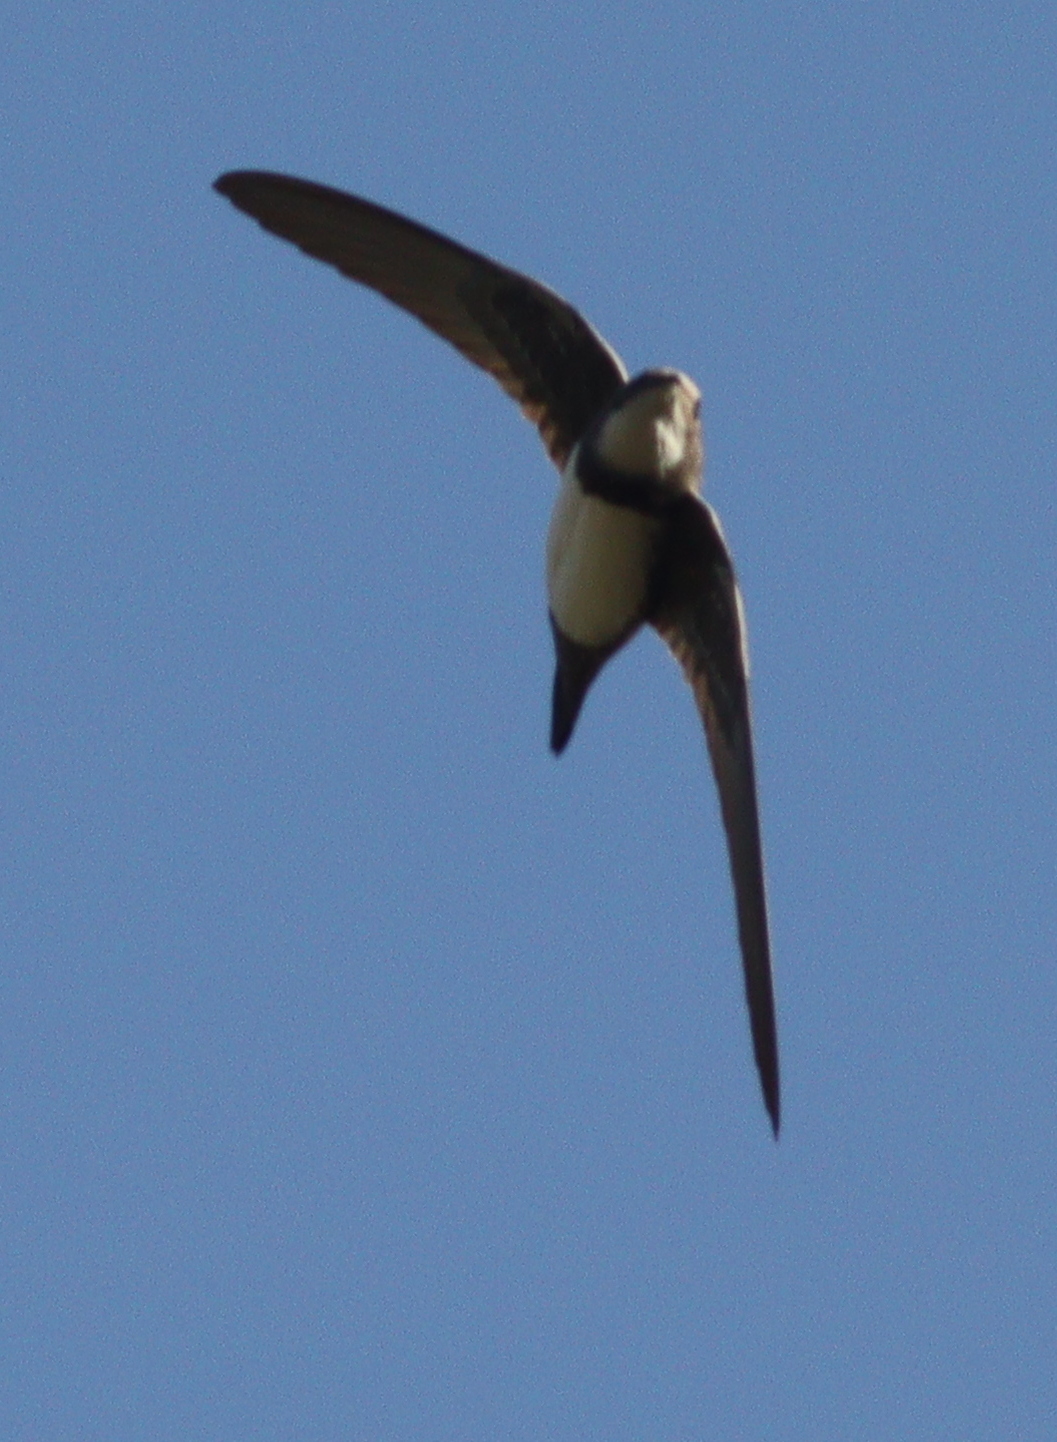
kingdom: Animalia
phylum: Chordata
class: Aves
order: Apodiformes
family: Apodidae
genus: Tachymarptis
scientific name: Tachymarptis melba
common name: Alpine swift
